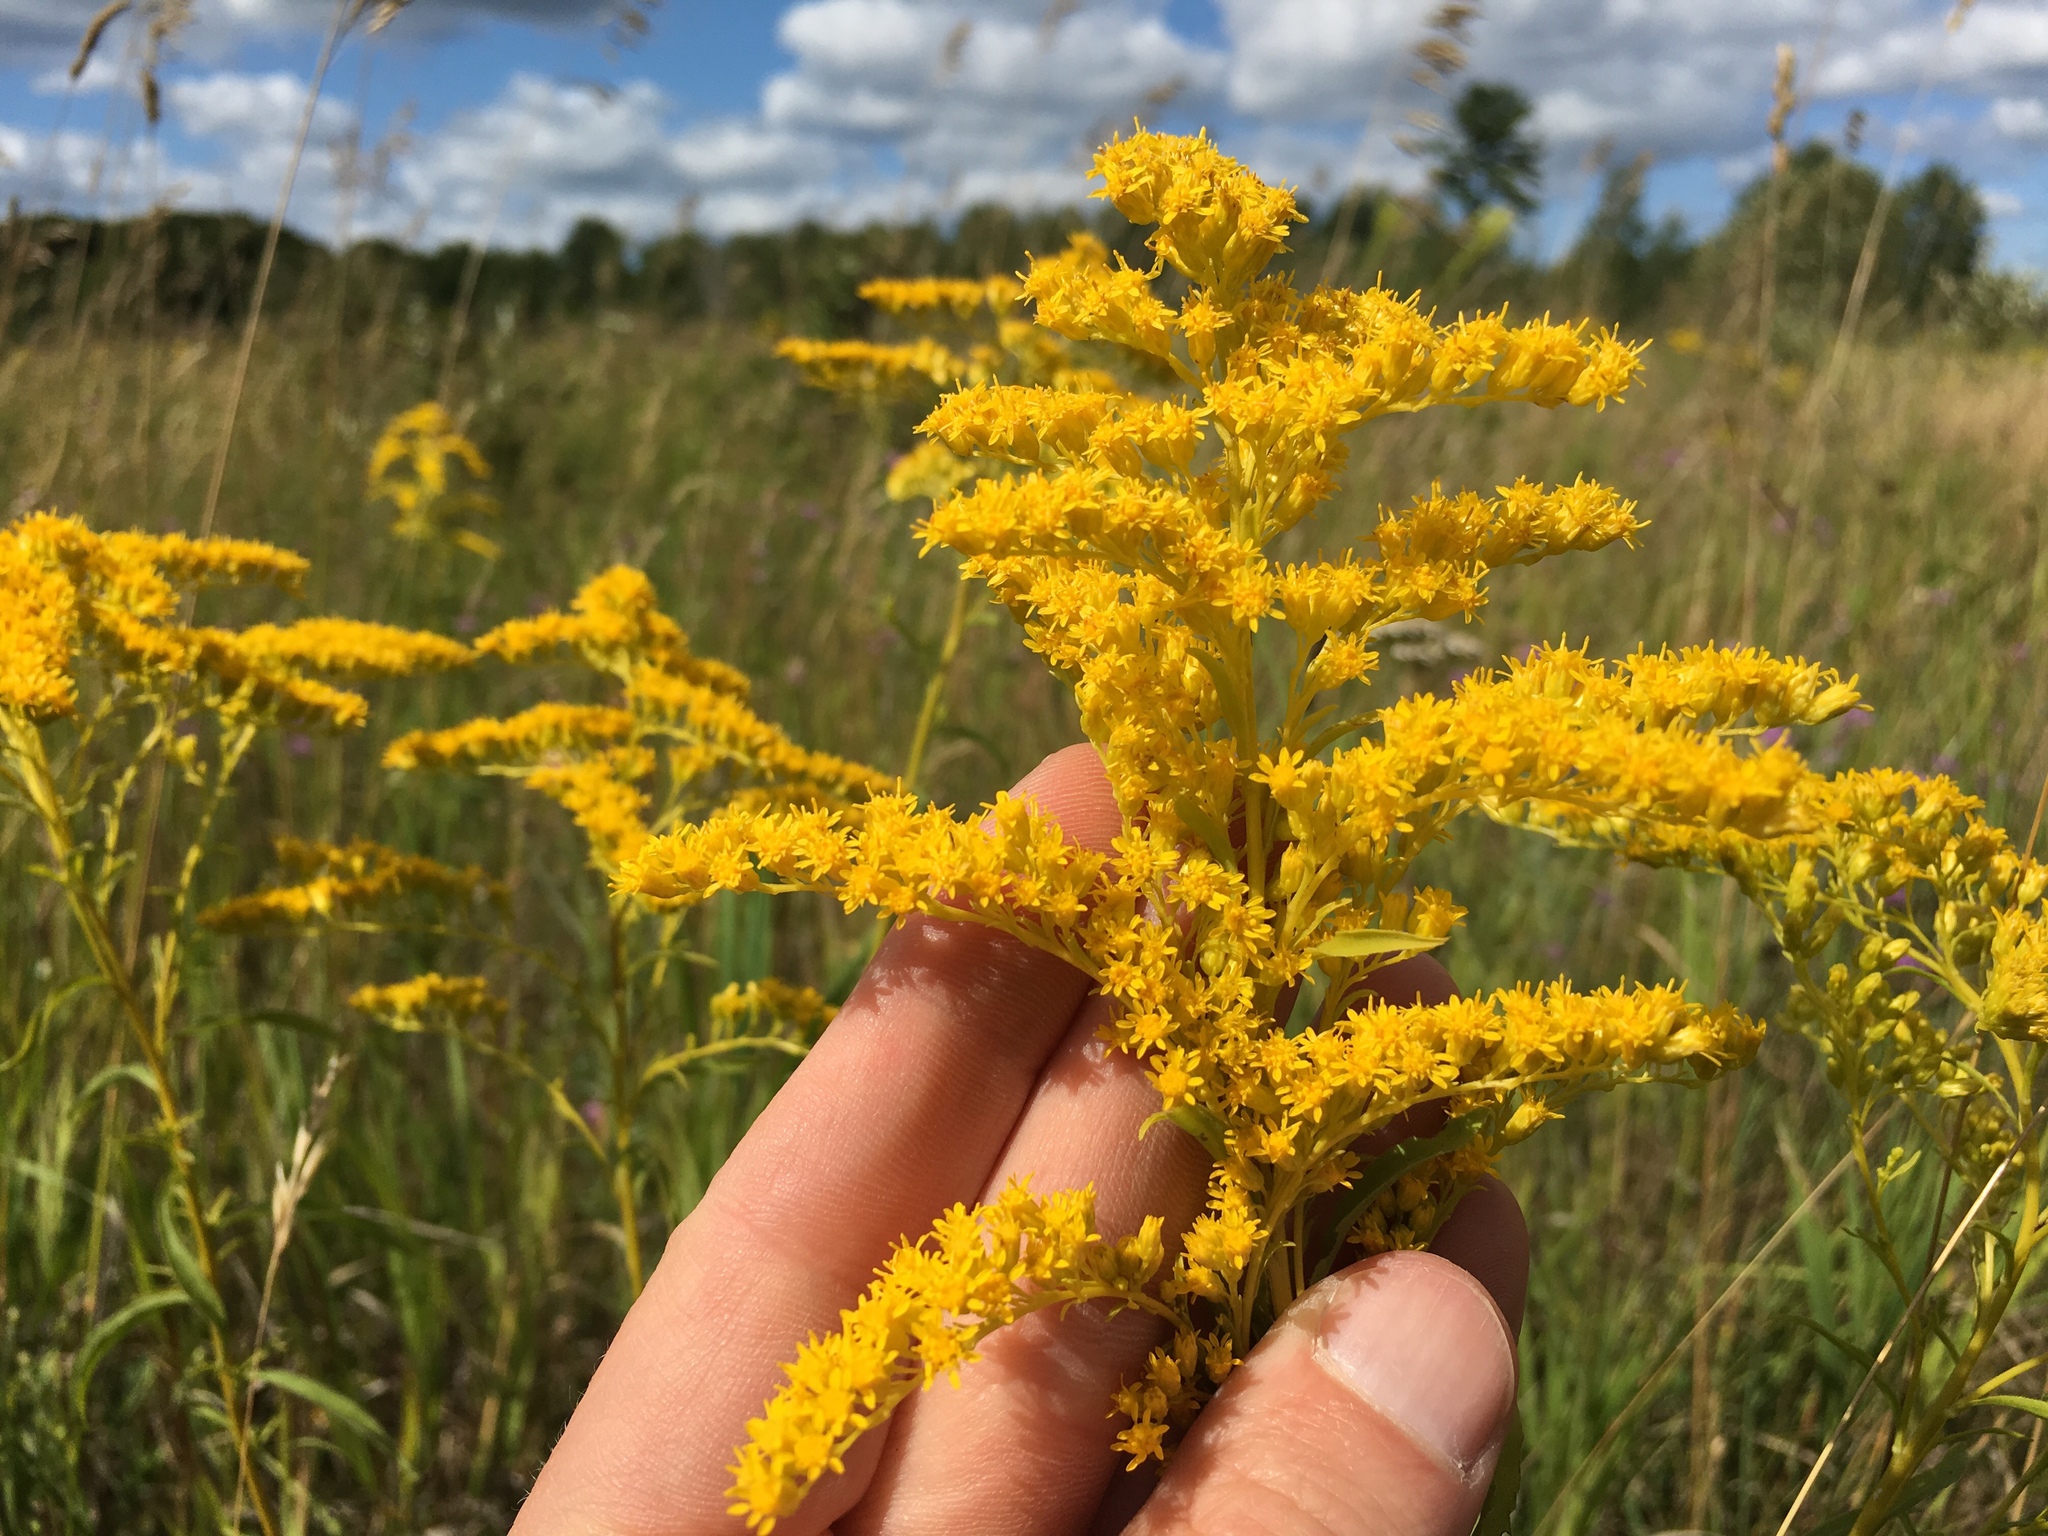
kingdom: Plantae
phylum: Tracheophyta
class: Magnoliopsida
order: Asterales
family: Asteraceae
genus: Solidago
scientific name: Solidago juncea
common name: Early goldenrod
